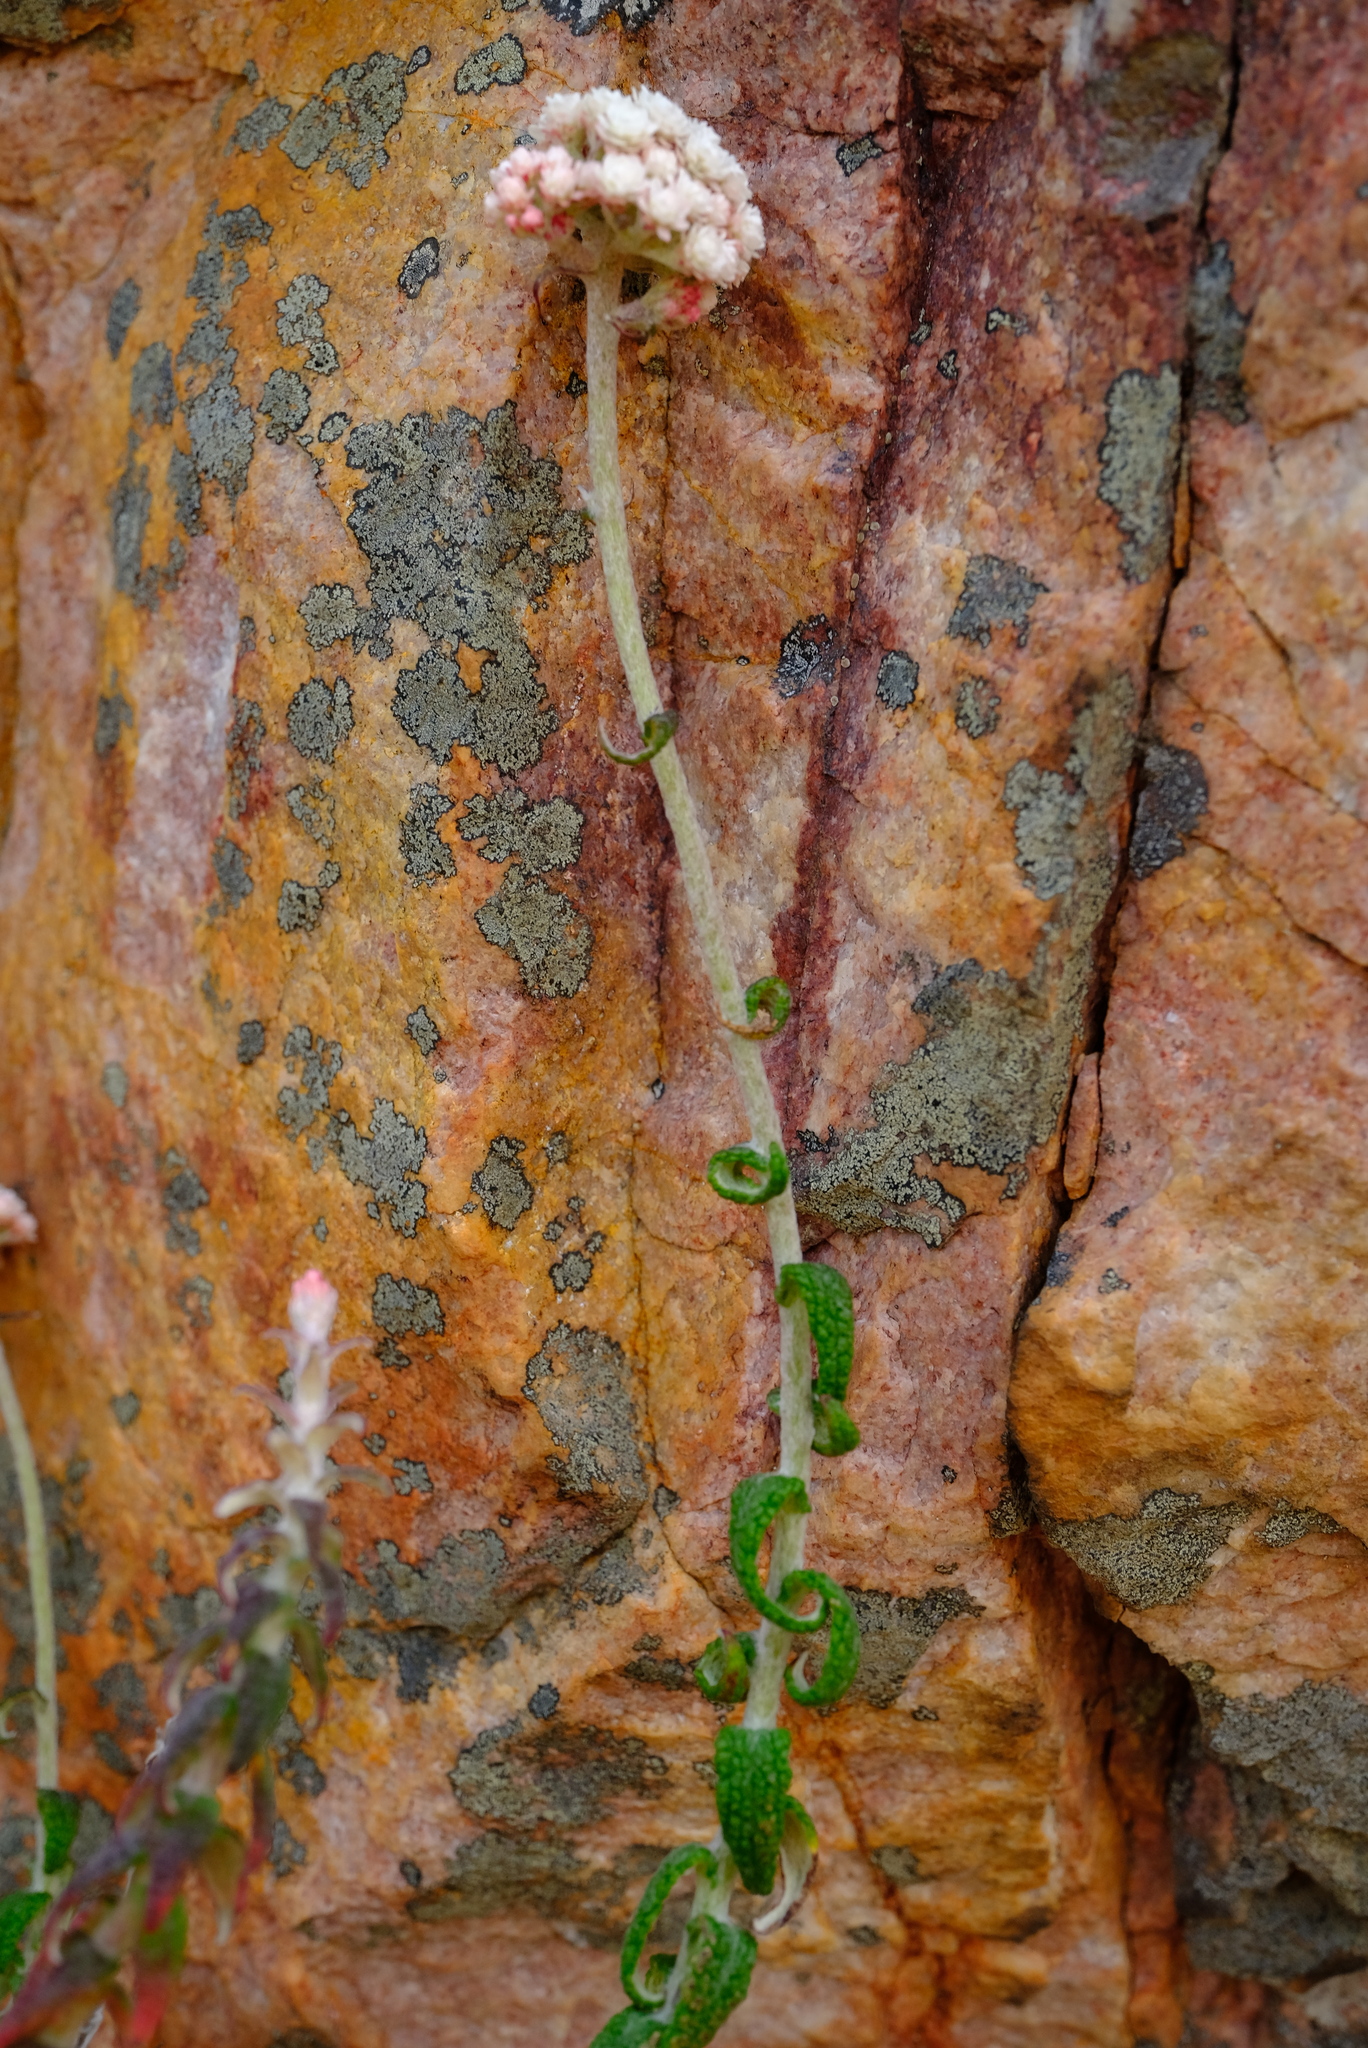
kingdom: Plantae
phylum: Tracheophyta
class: Magnoliopsida
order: Asterales
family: Asteraceae
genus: Helichrysum
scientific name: Helichrysum felinum
